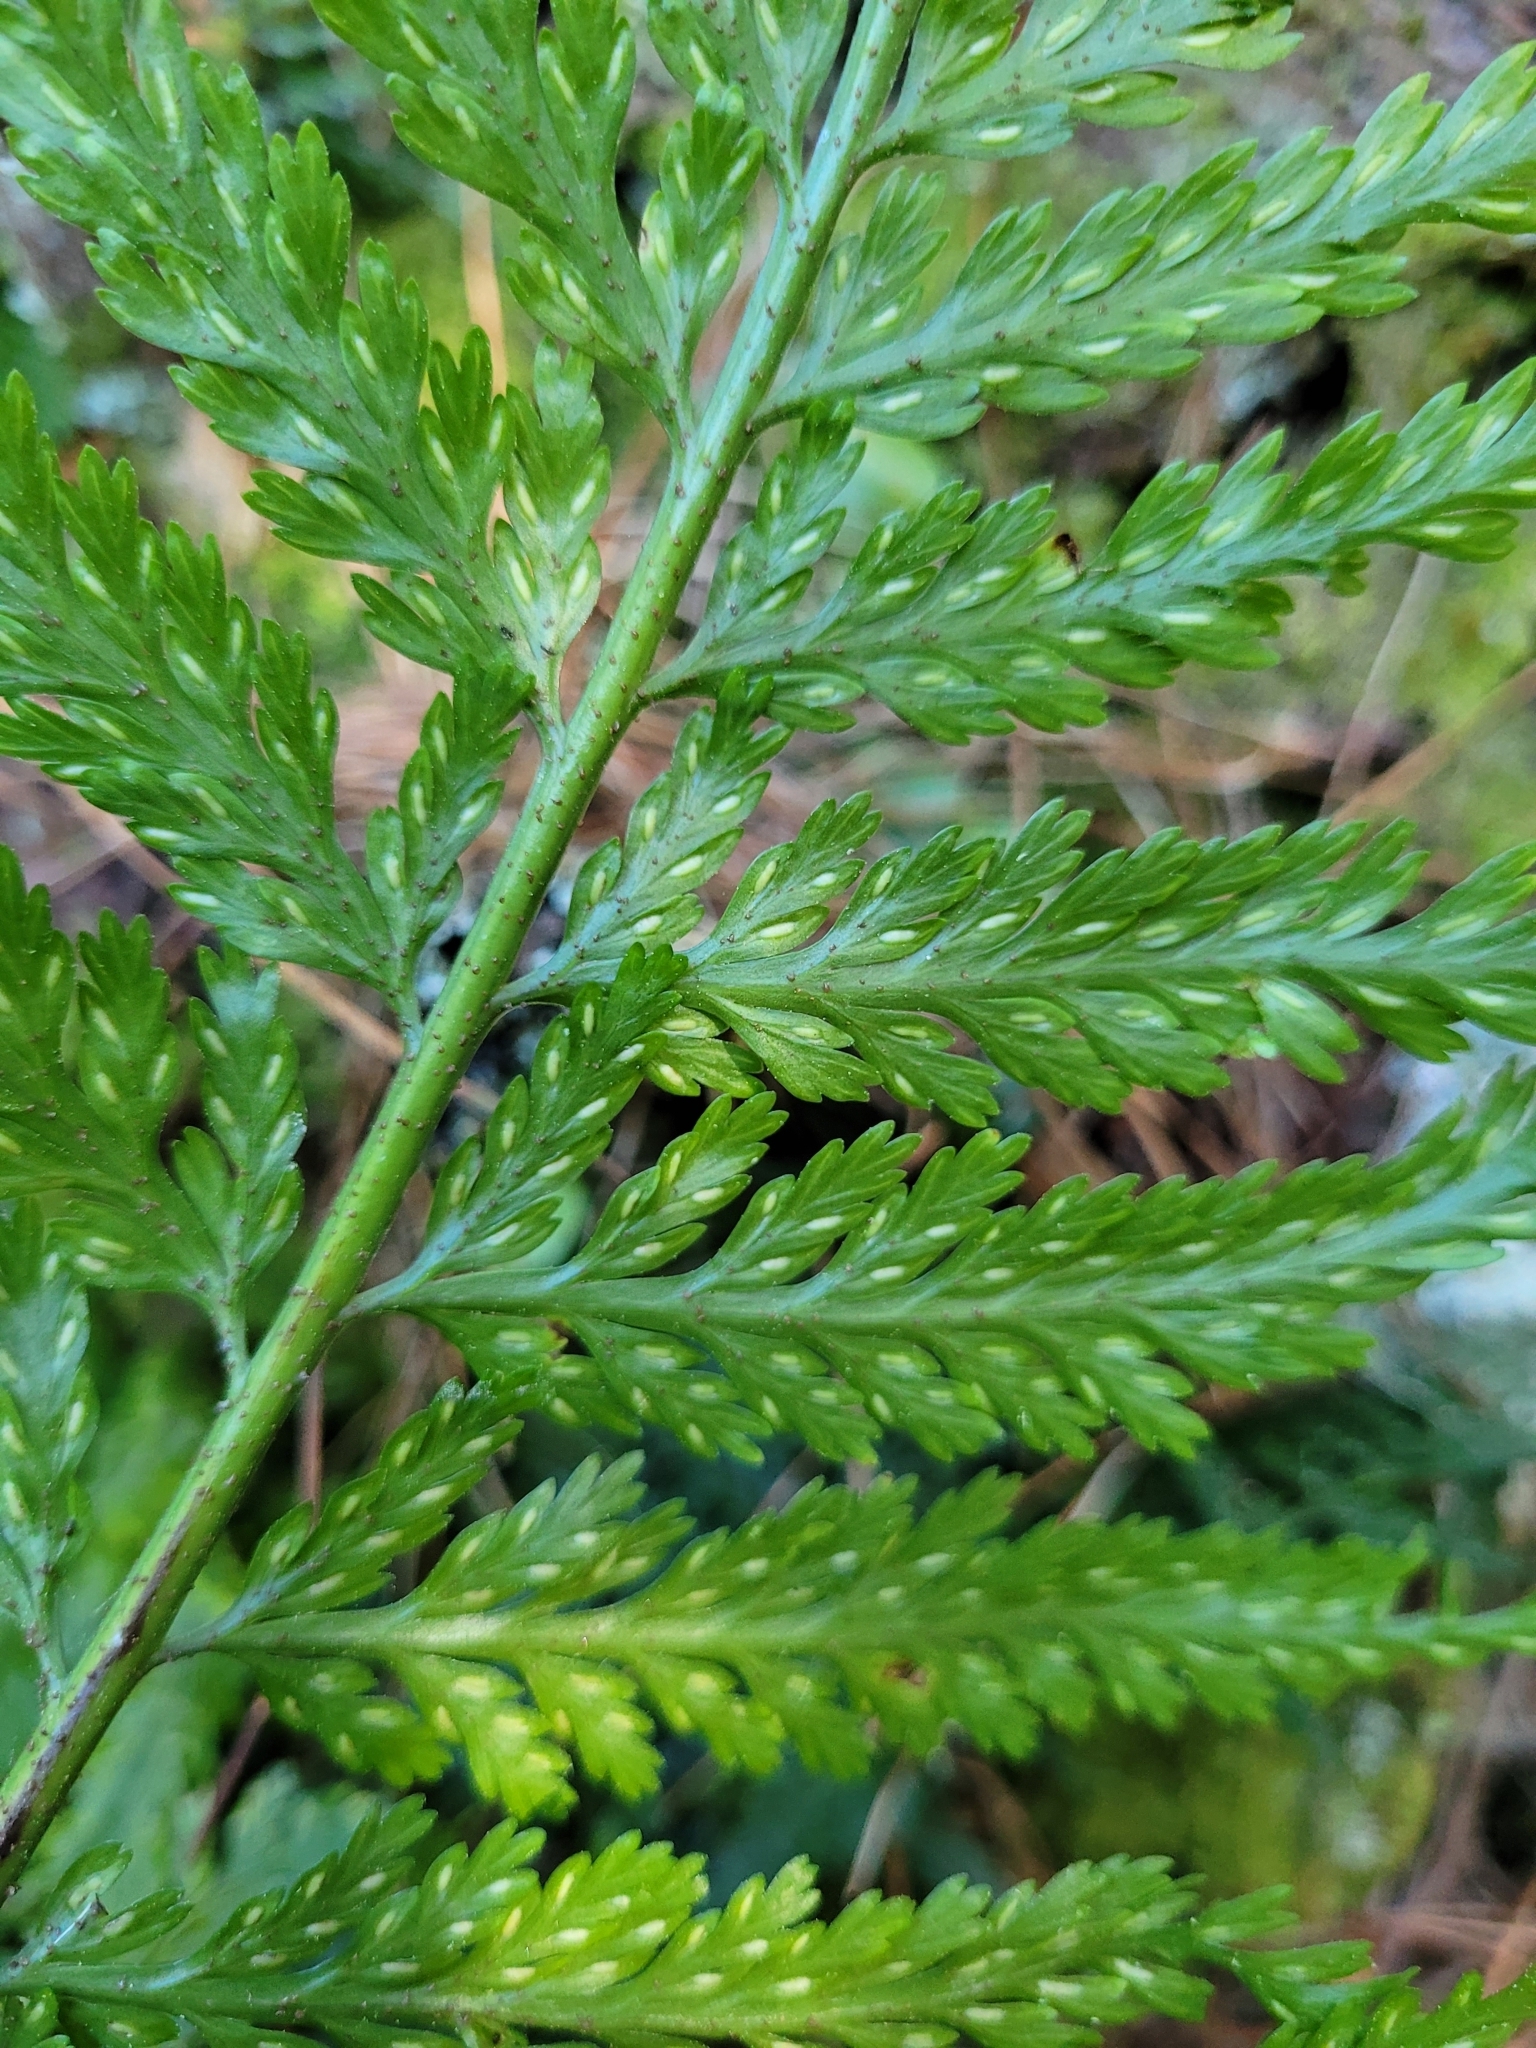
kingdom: Plantae
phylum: Tracheophyta
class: Polypodiopsida
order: Polypodiales
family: Aspleniaceae
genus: Asplenium
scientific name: Asplenium bulbiferum
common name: Mother fern
